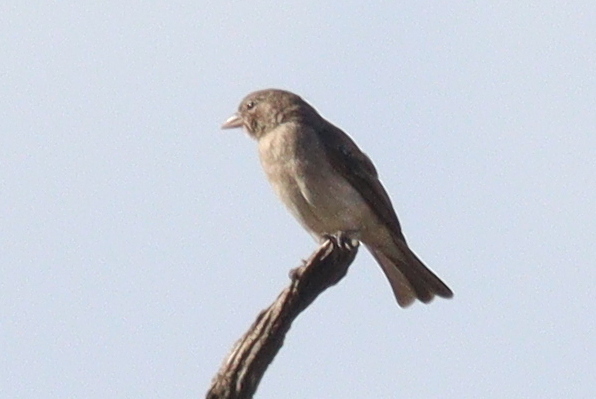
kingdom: Animalia
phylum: Chordata
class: Aves
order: Passeriformes
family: Passeridae
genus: Gymnoris
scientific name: Gymnoris pyrgita
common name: Yellow-spotted petronia
